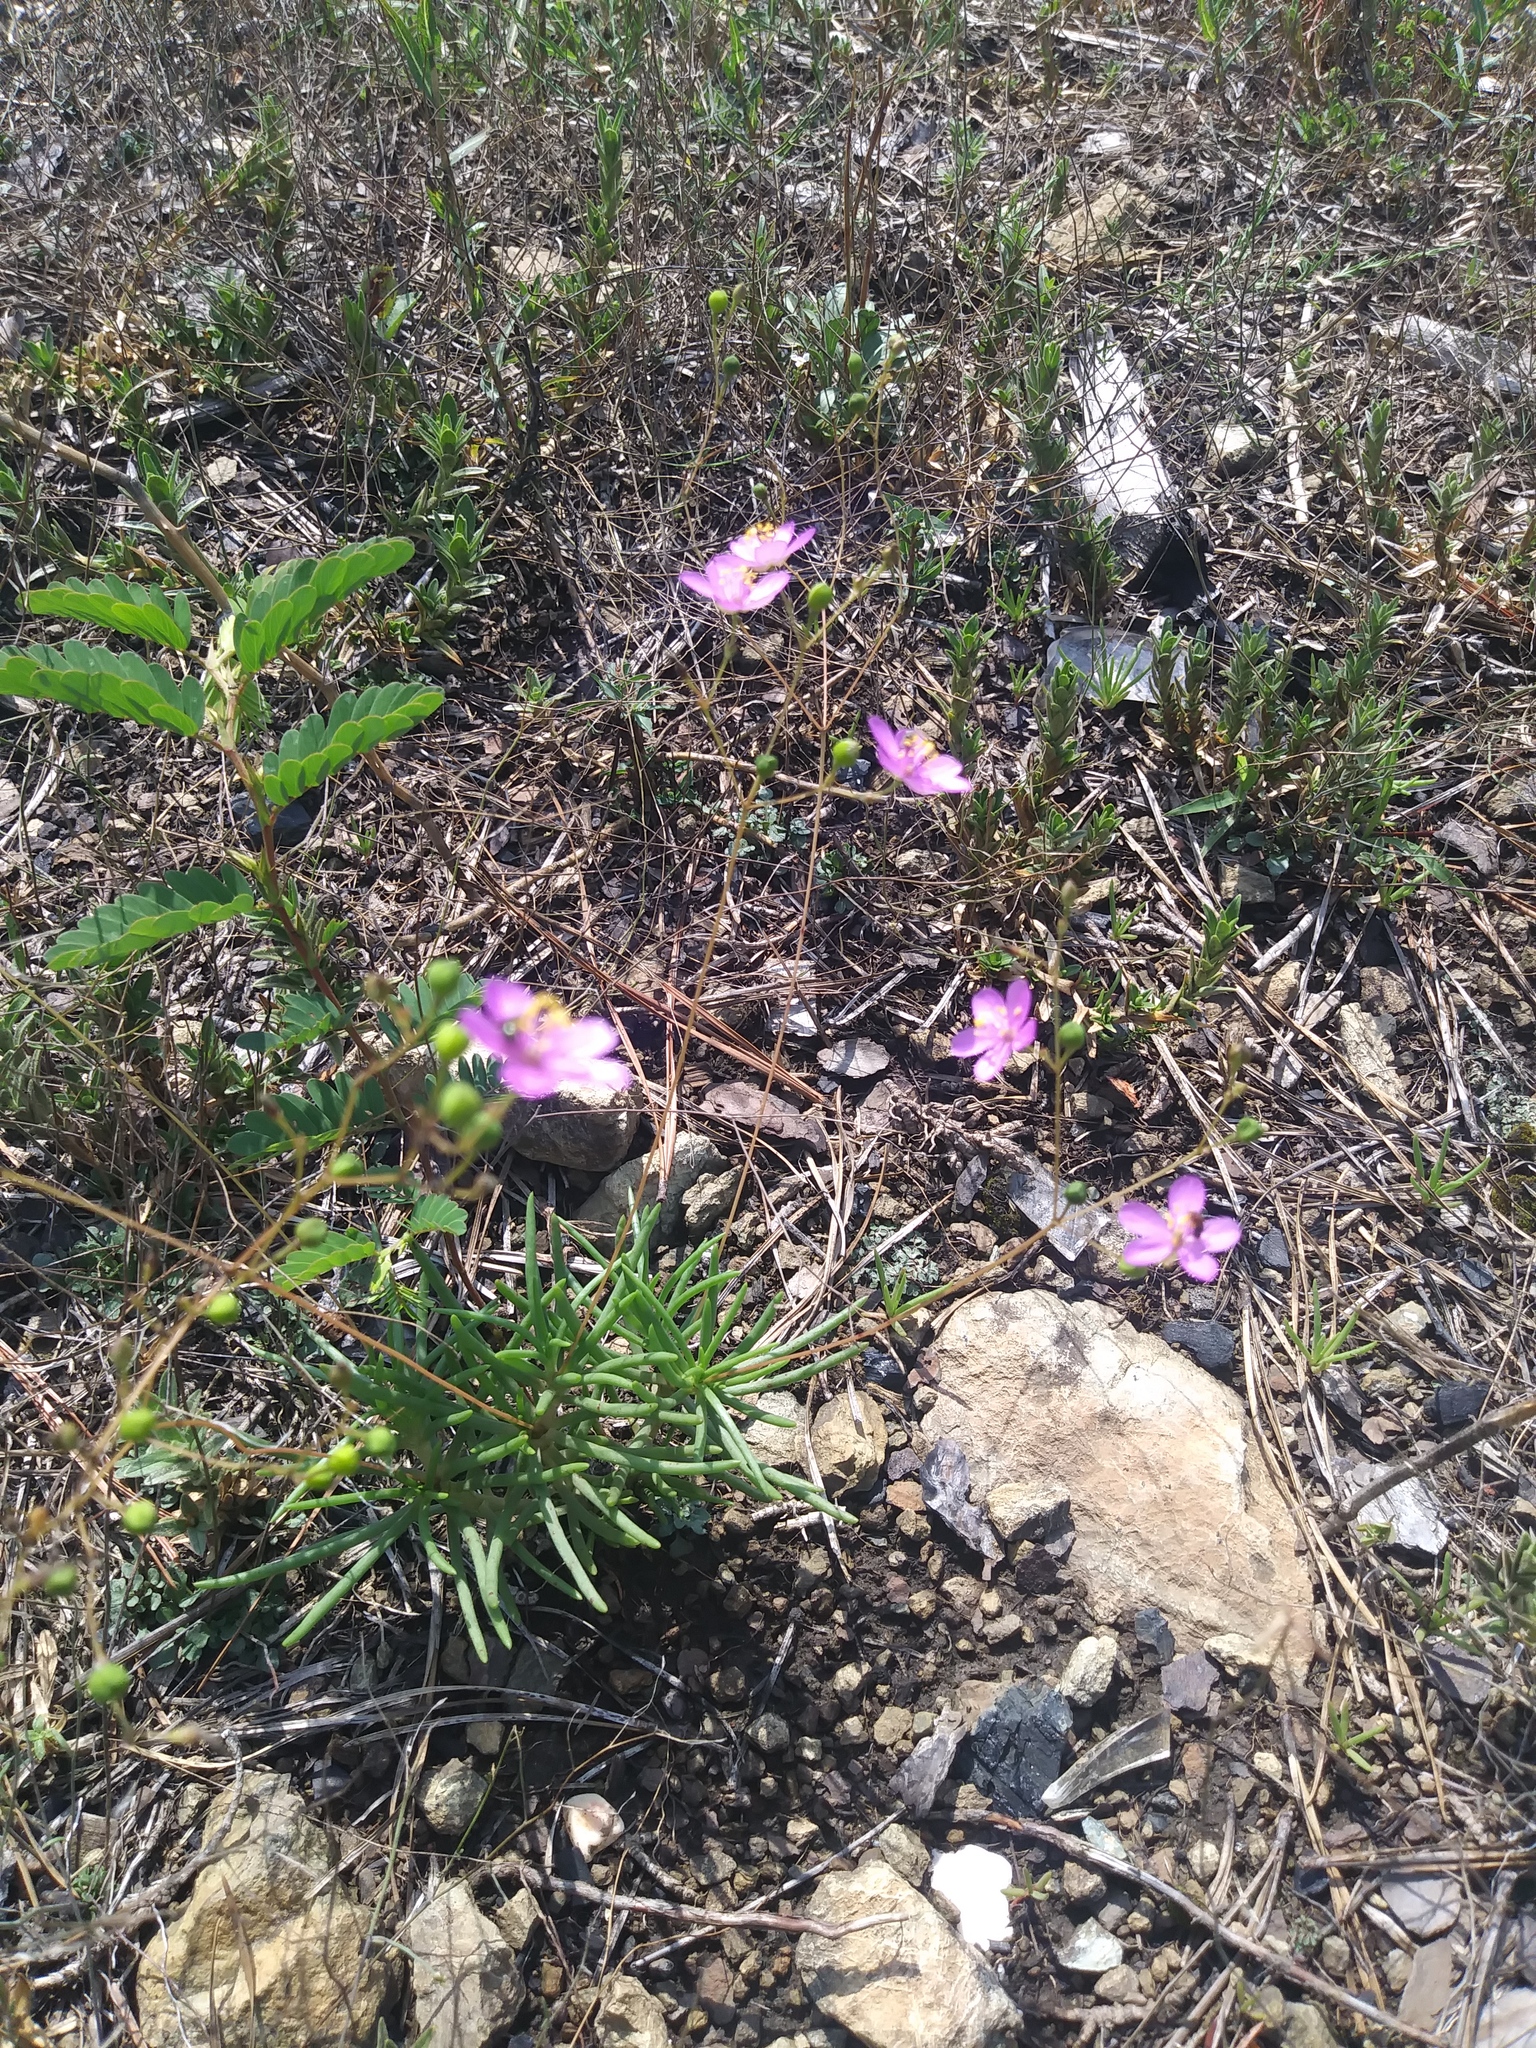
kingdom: Plantae
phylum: Tracheophyta
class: Magnoliopsida
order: Caryophyllales
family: Montiaceae
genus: Phemeranthus
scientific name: Phemeranthus teretifolius
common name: Quill fameflower
